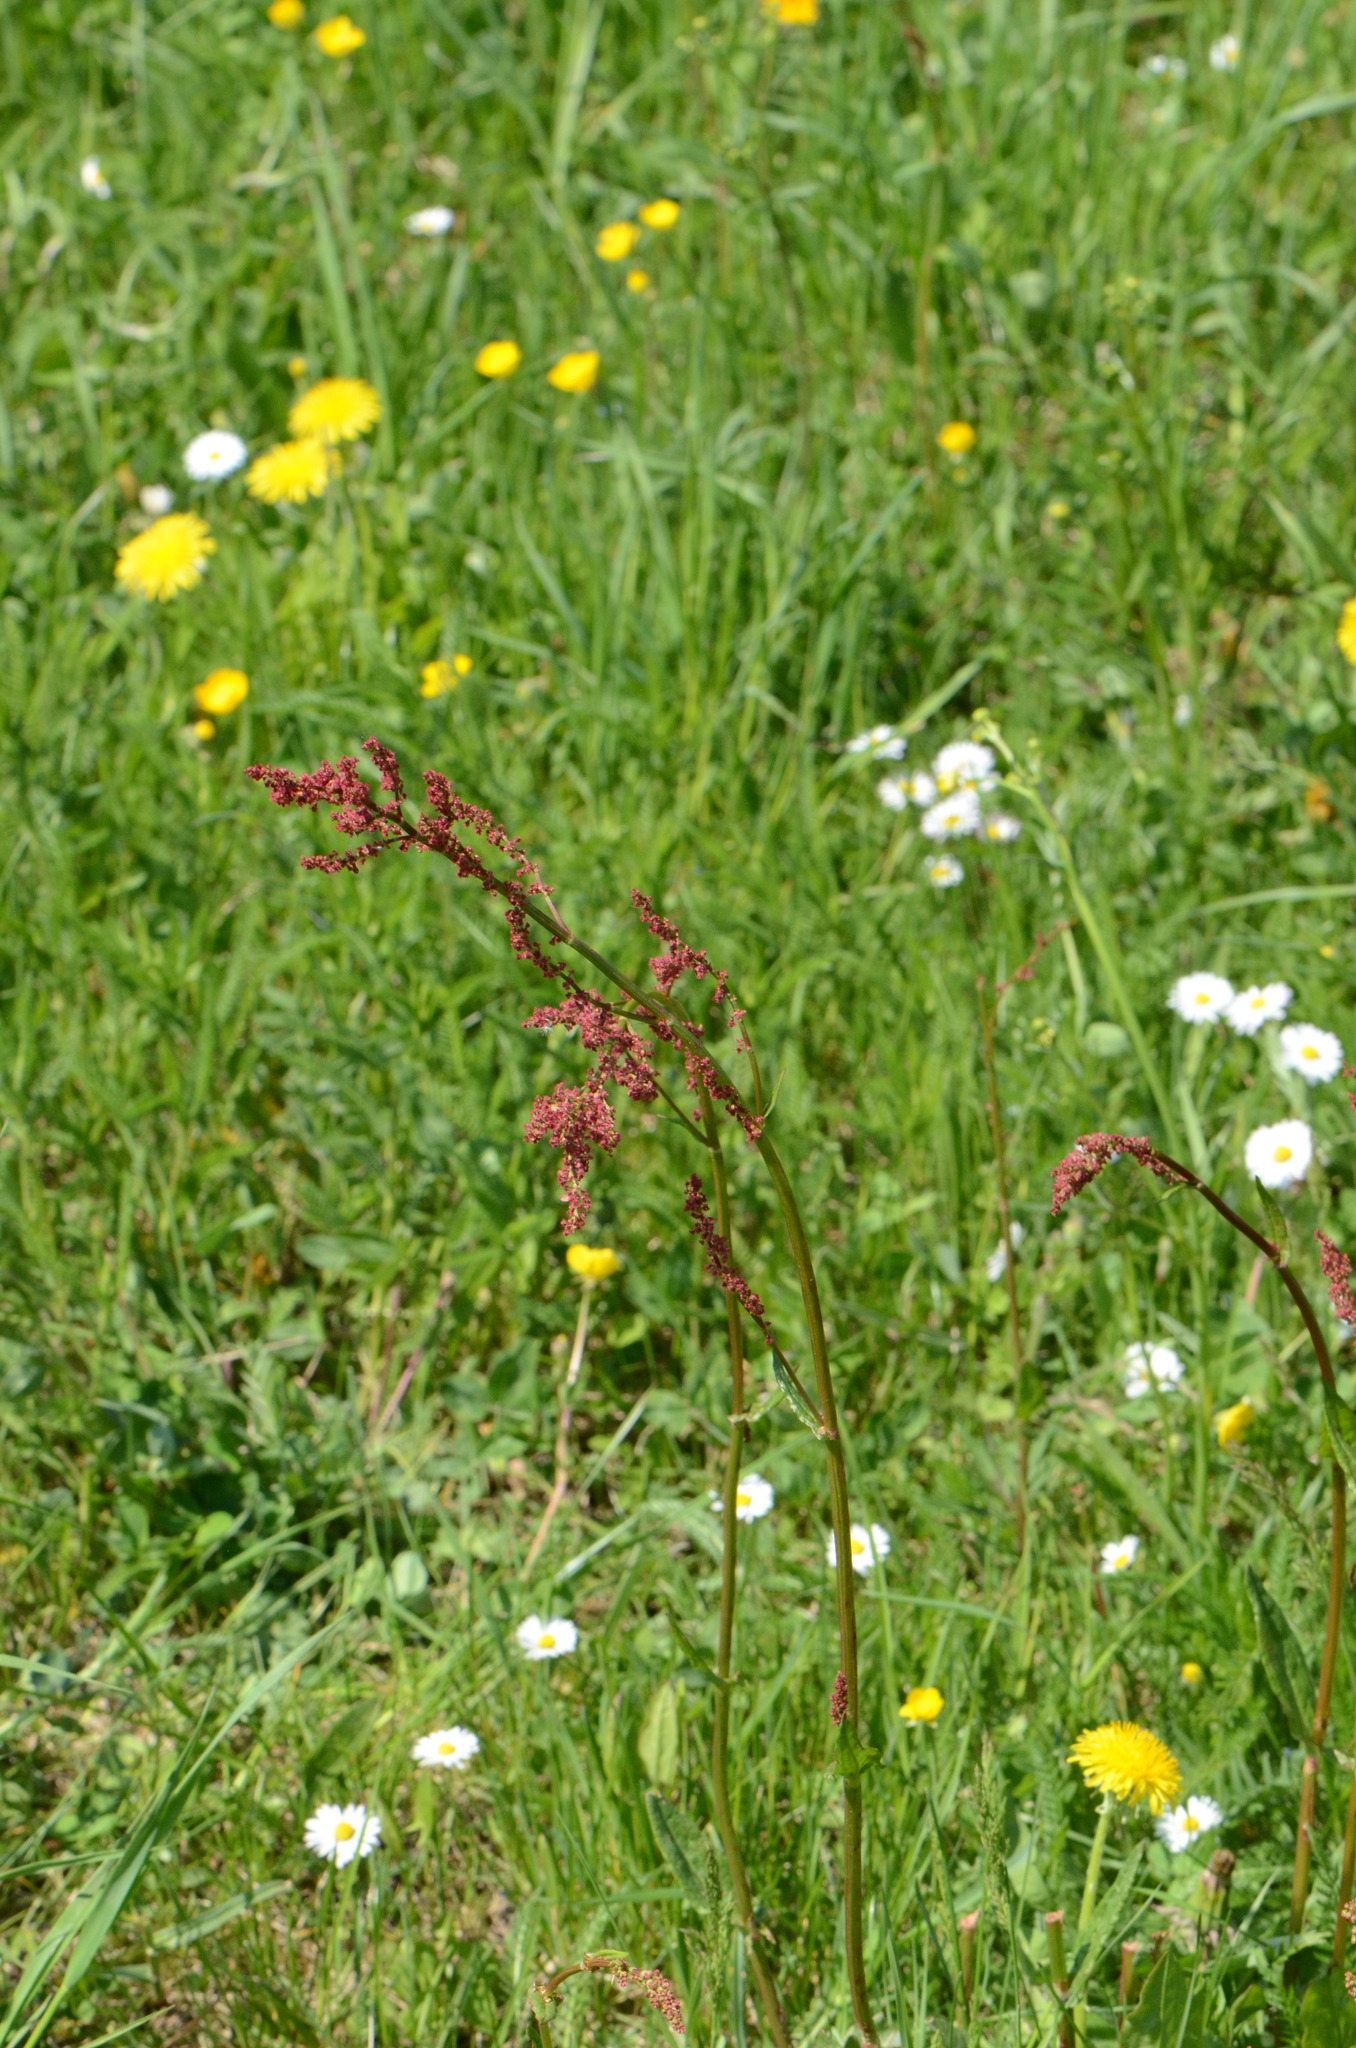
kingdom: Plantae
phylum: Tracheophyta
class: Magnoliopsida
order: Caryophyllales
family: Polygonaceae
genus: Rumex
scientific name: Rumex acetosa
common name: Garden sorrel
